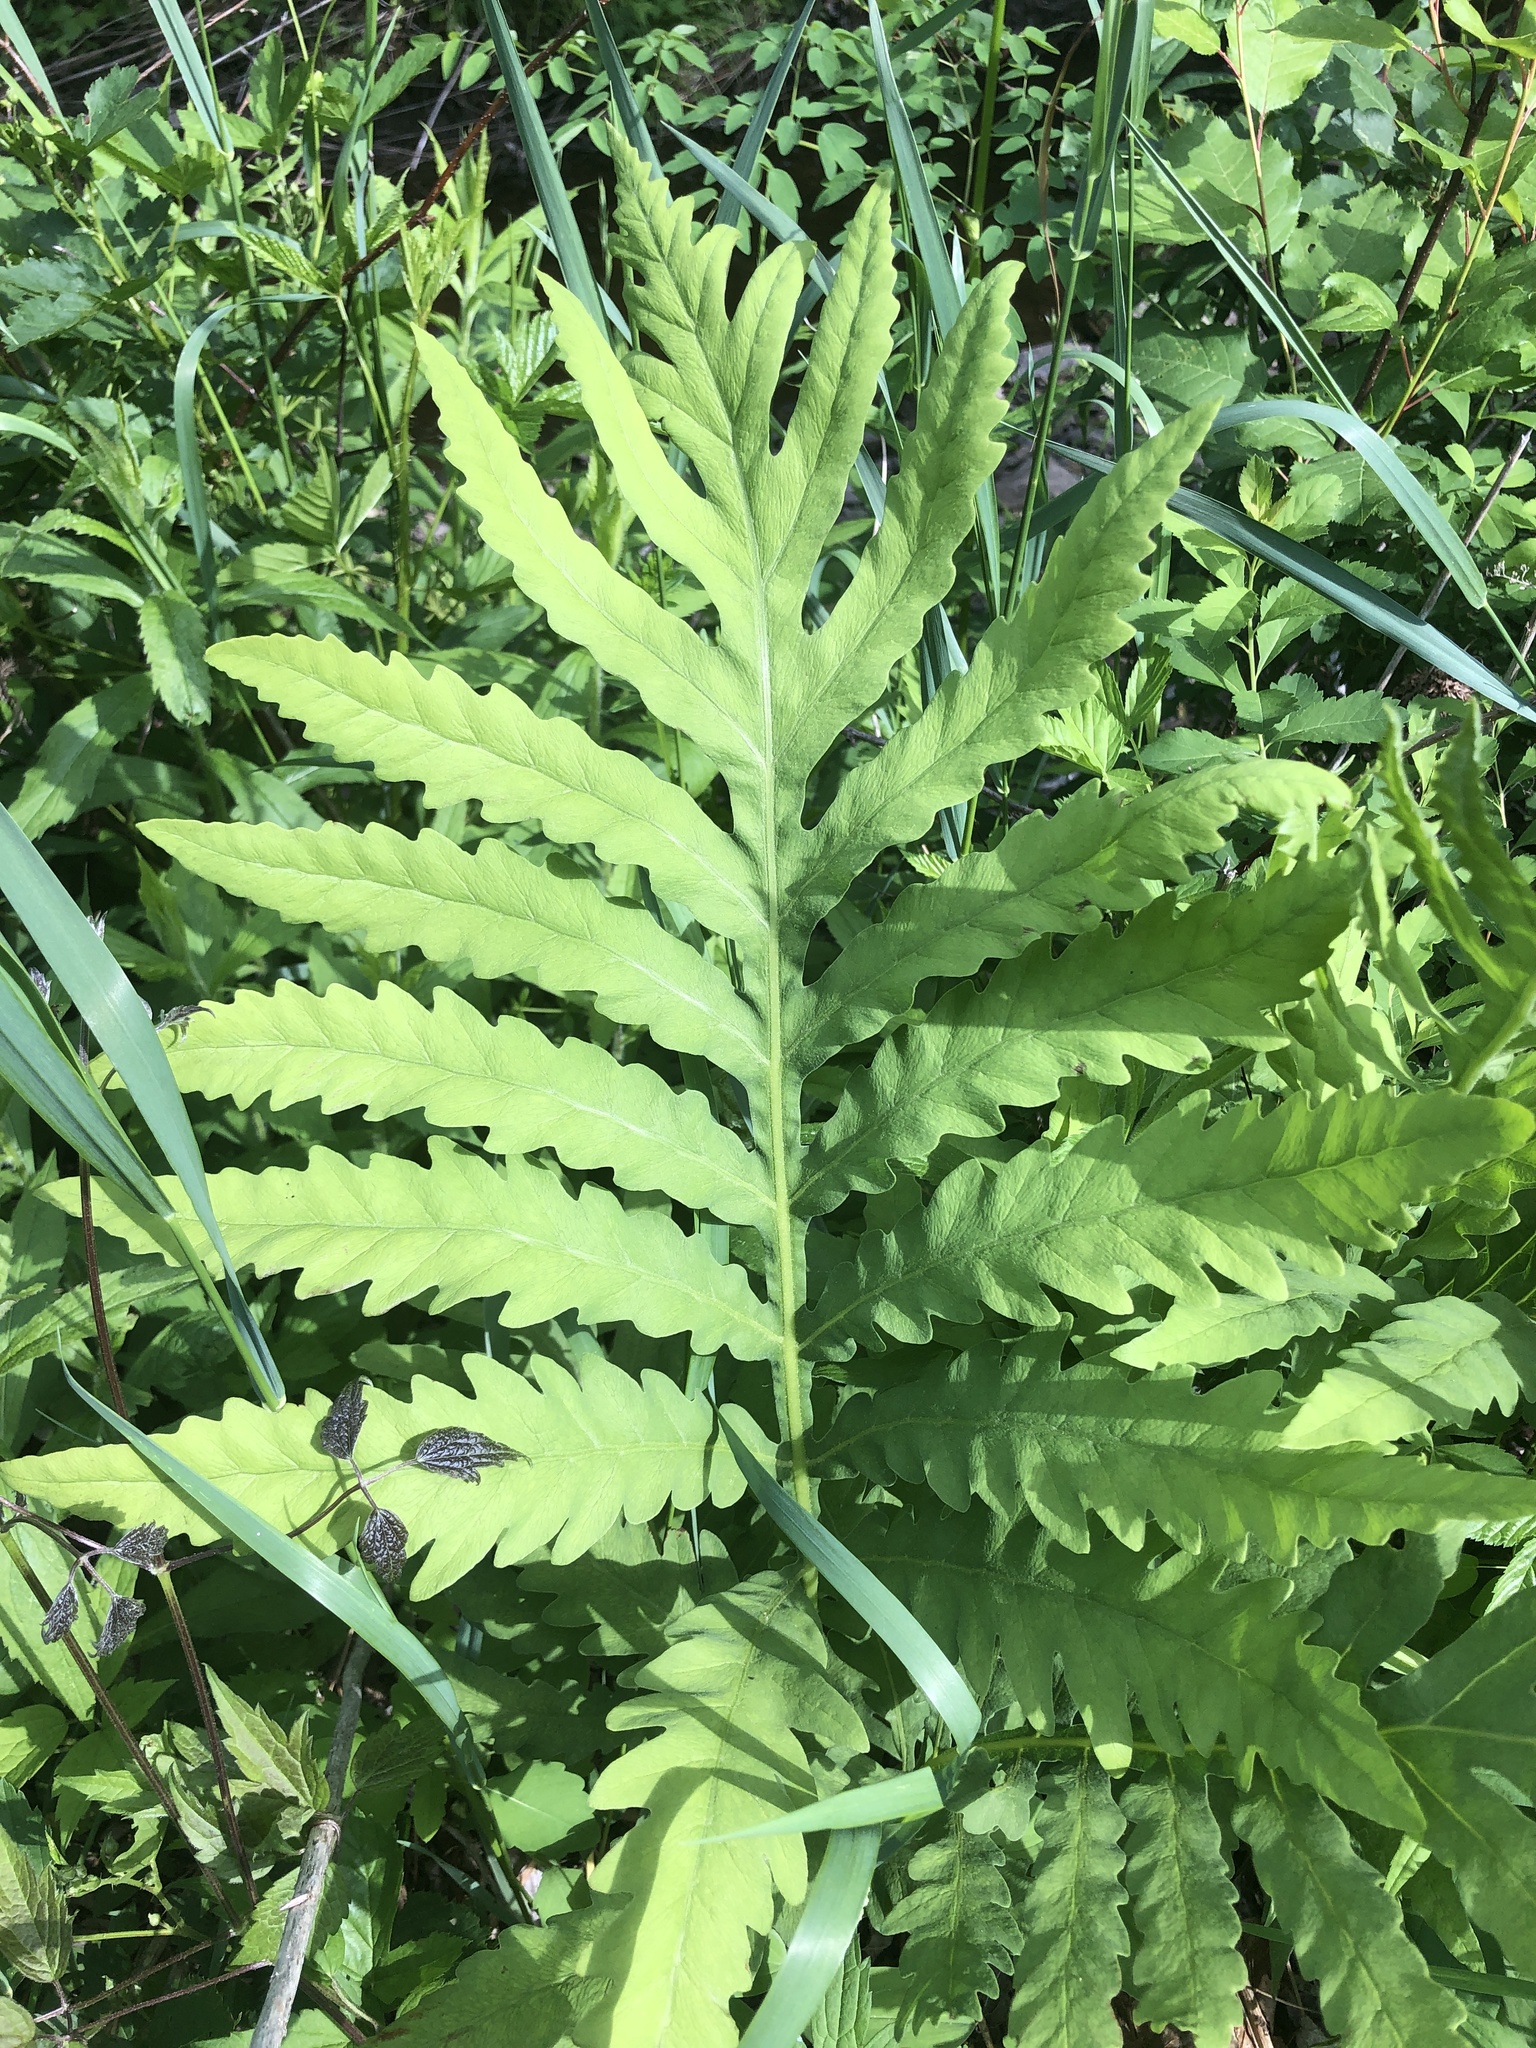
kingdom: Plantae
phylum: Tracheophyta
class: Polypodiopsida
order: Polypodiales
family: Onocleaceae
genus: Onoclea
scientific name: Onoclea sensibilis
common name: Sensitive fern
